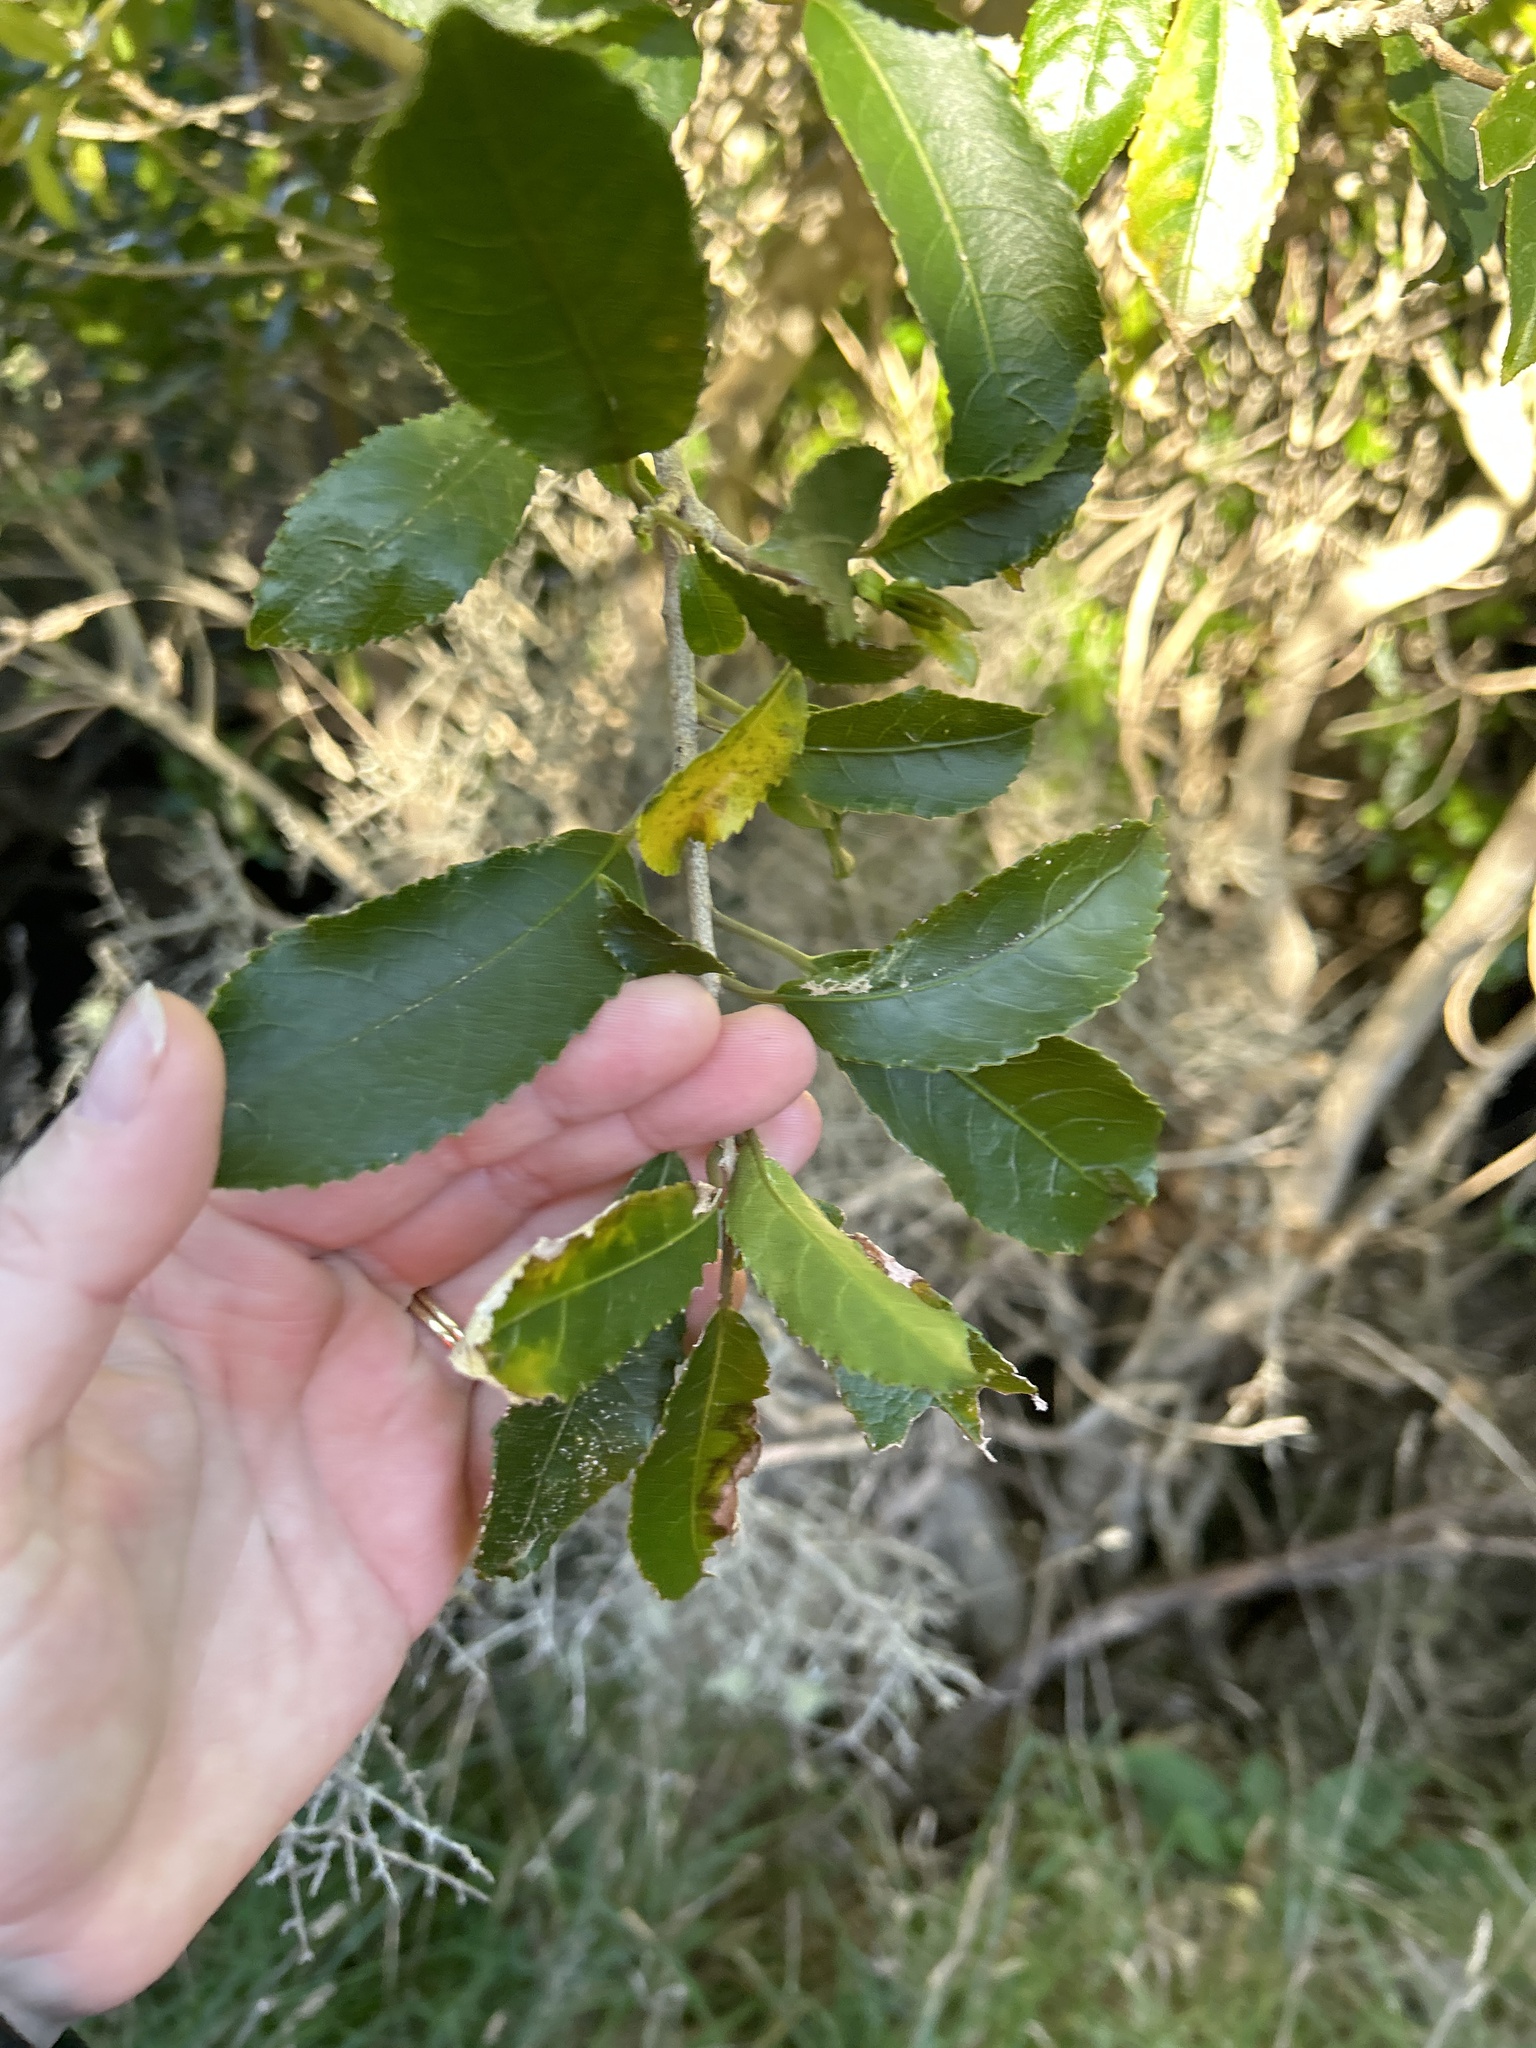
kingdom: Plantae
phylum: Tracheophyta
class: Magnoliopsida
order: Malpighiales
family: Violaceae
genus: Melicytus
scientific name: Melicytus ramiflorus
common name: Mahoe
